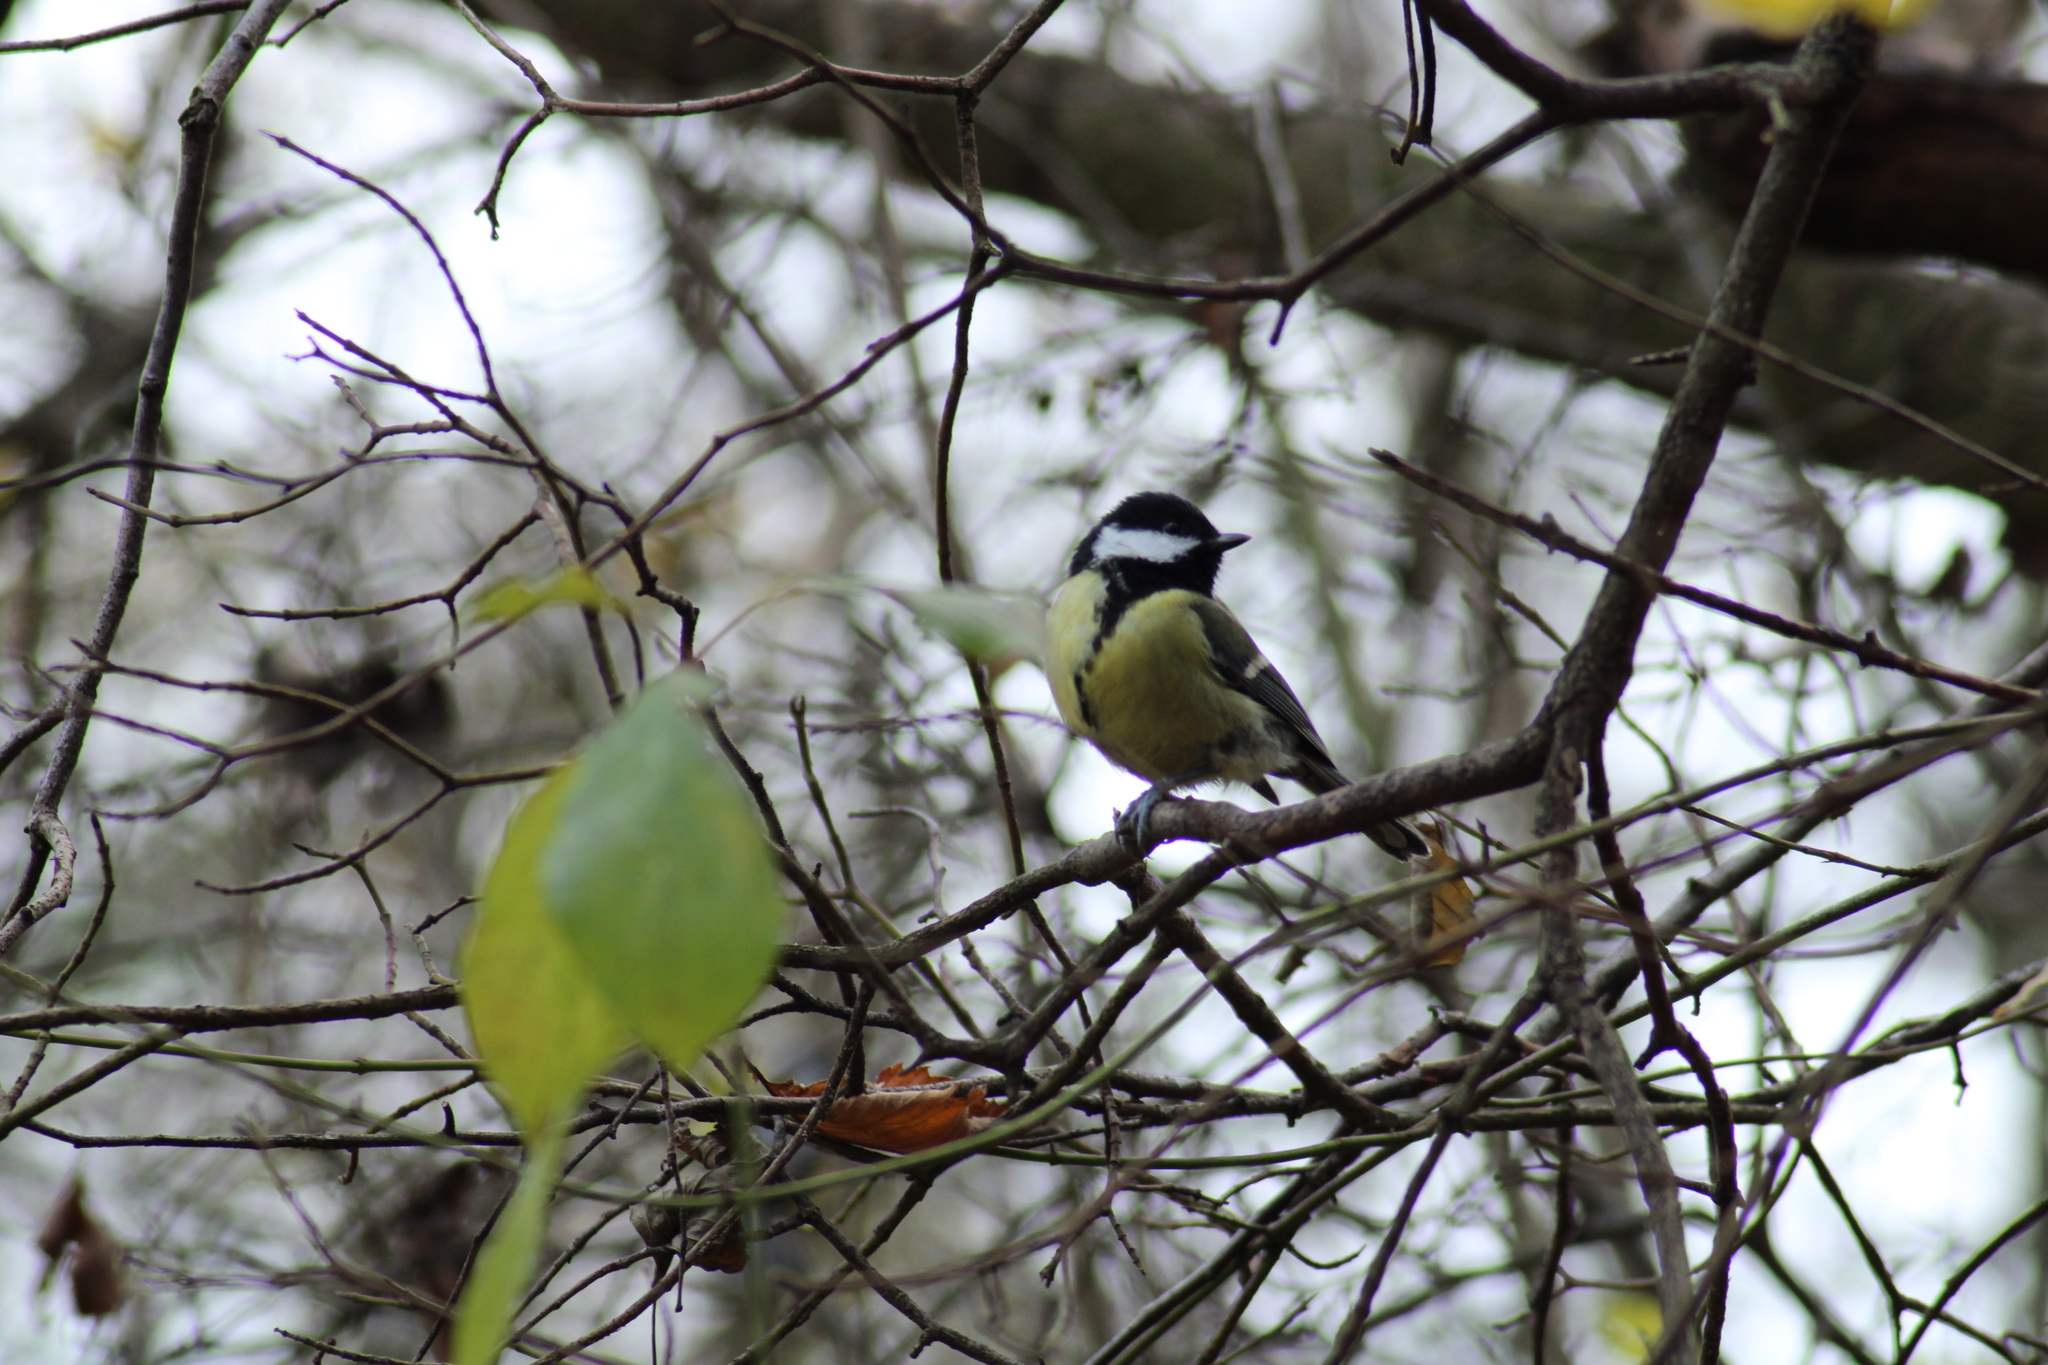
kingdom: Animalia
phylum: Chordata
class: Aves
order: Passeriformes
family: Paridae
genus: Parus
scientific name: Parus major
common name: Great tit
